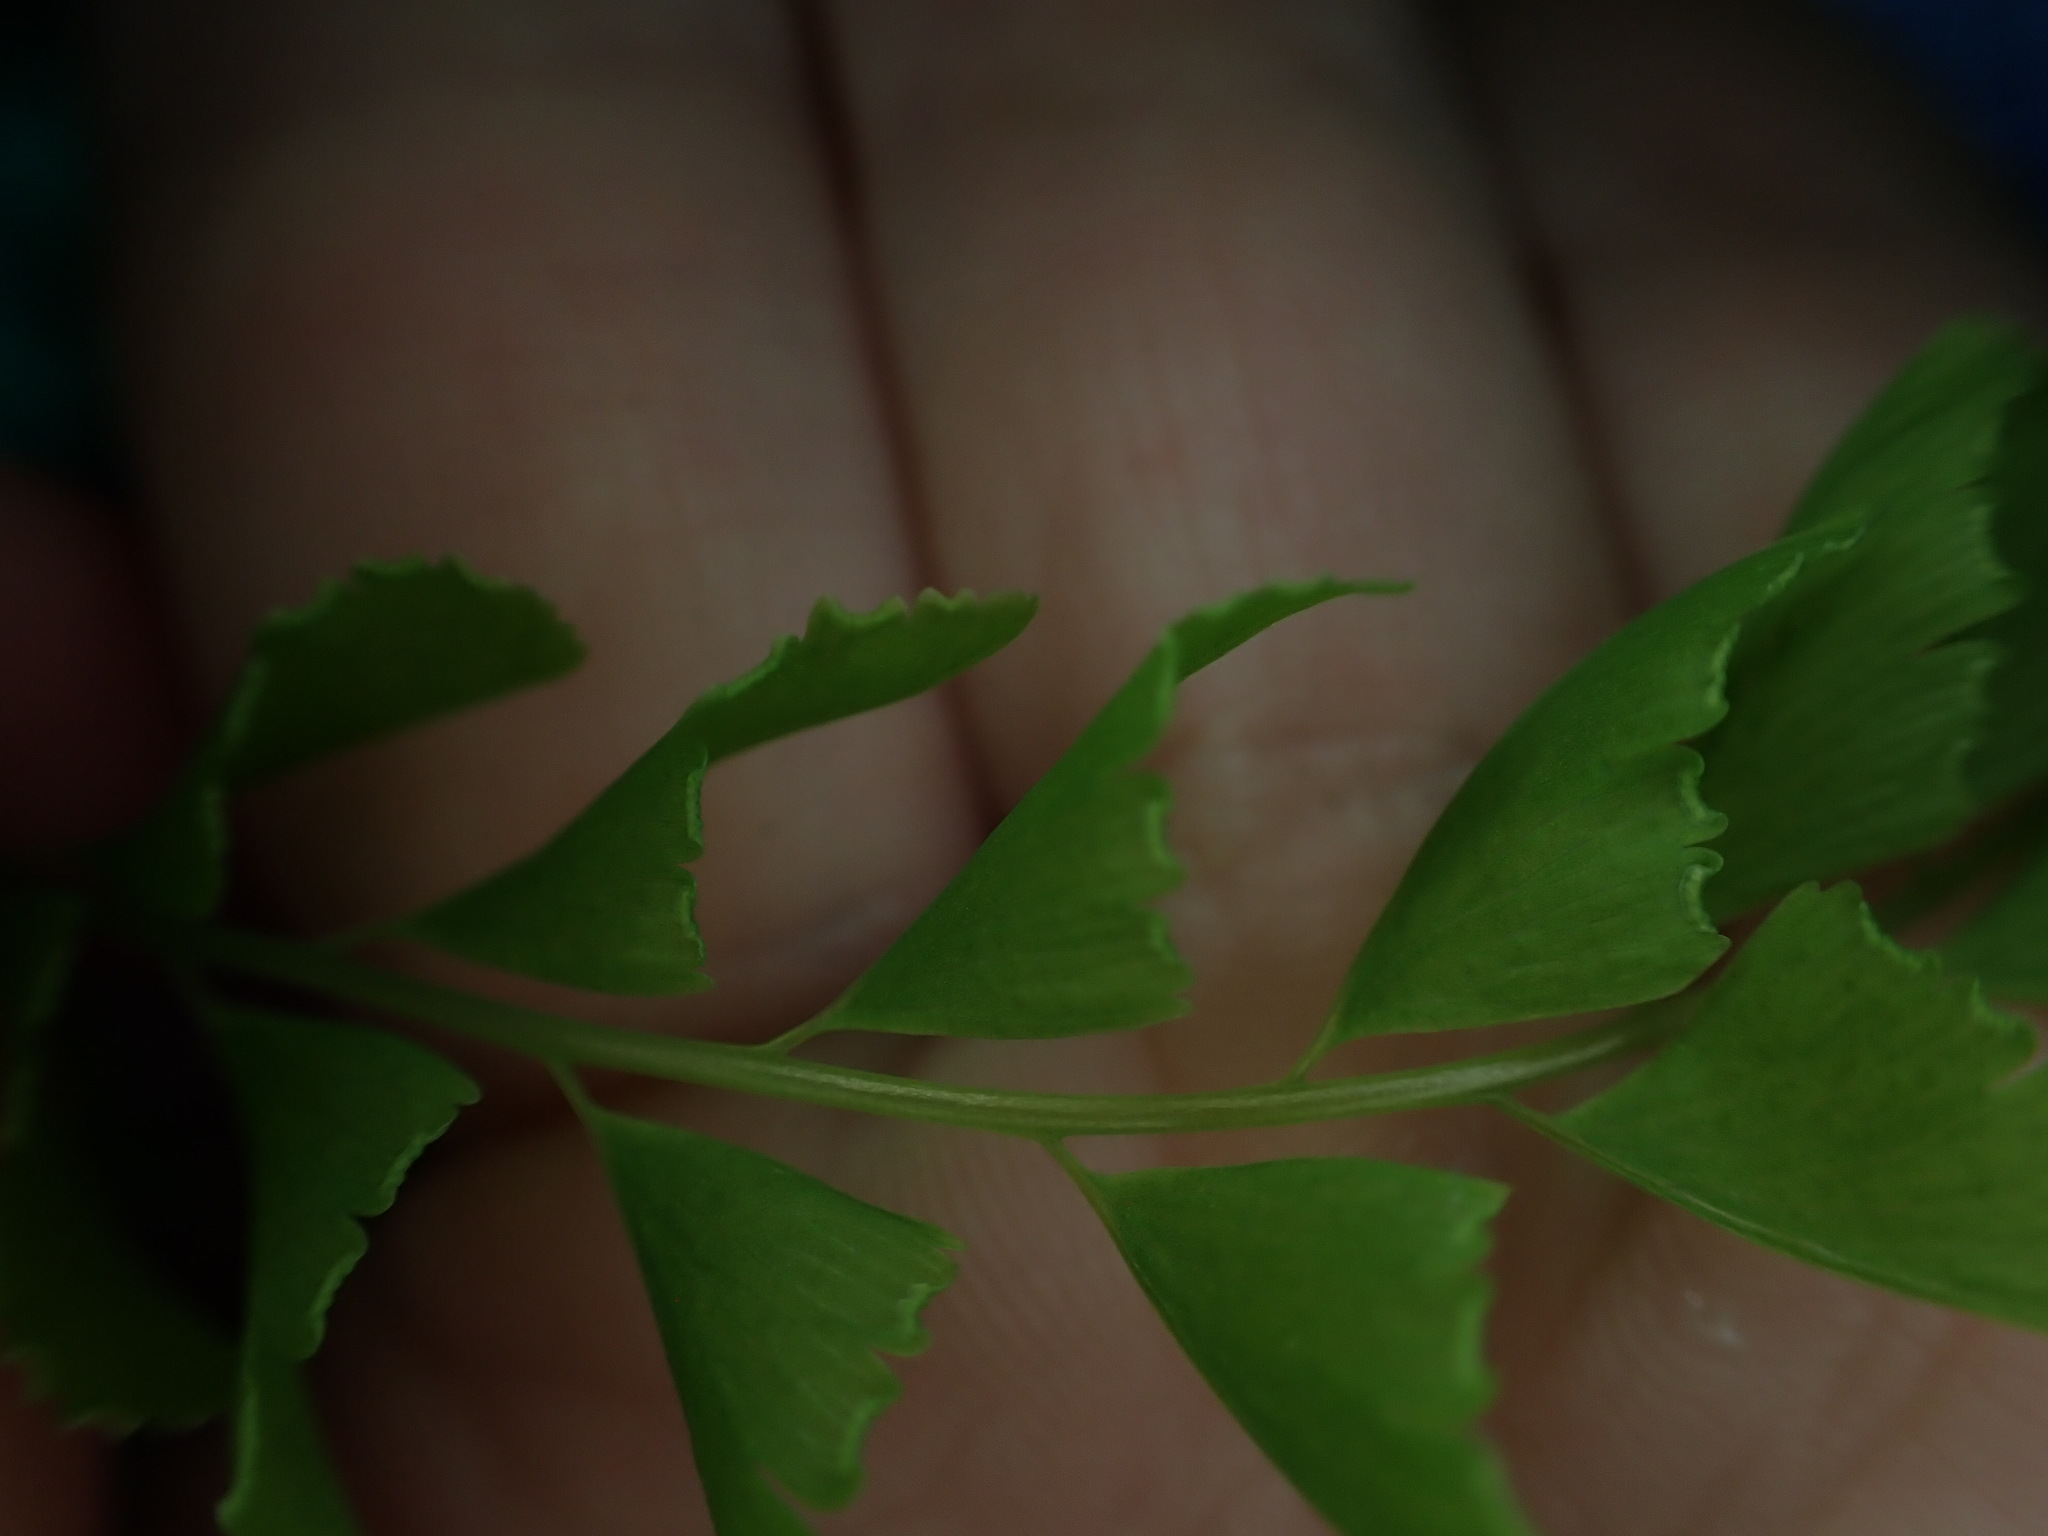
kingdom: Plantae
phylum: Tracheophyta
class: Polypodiopsida
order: Polypodiales
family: Pteridaceae
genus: Adiantum
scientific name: Adiantum aleuticum
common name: Aleutian maidenhair fern
